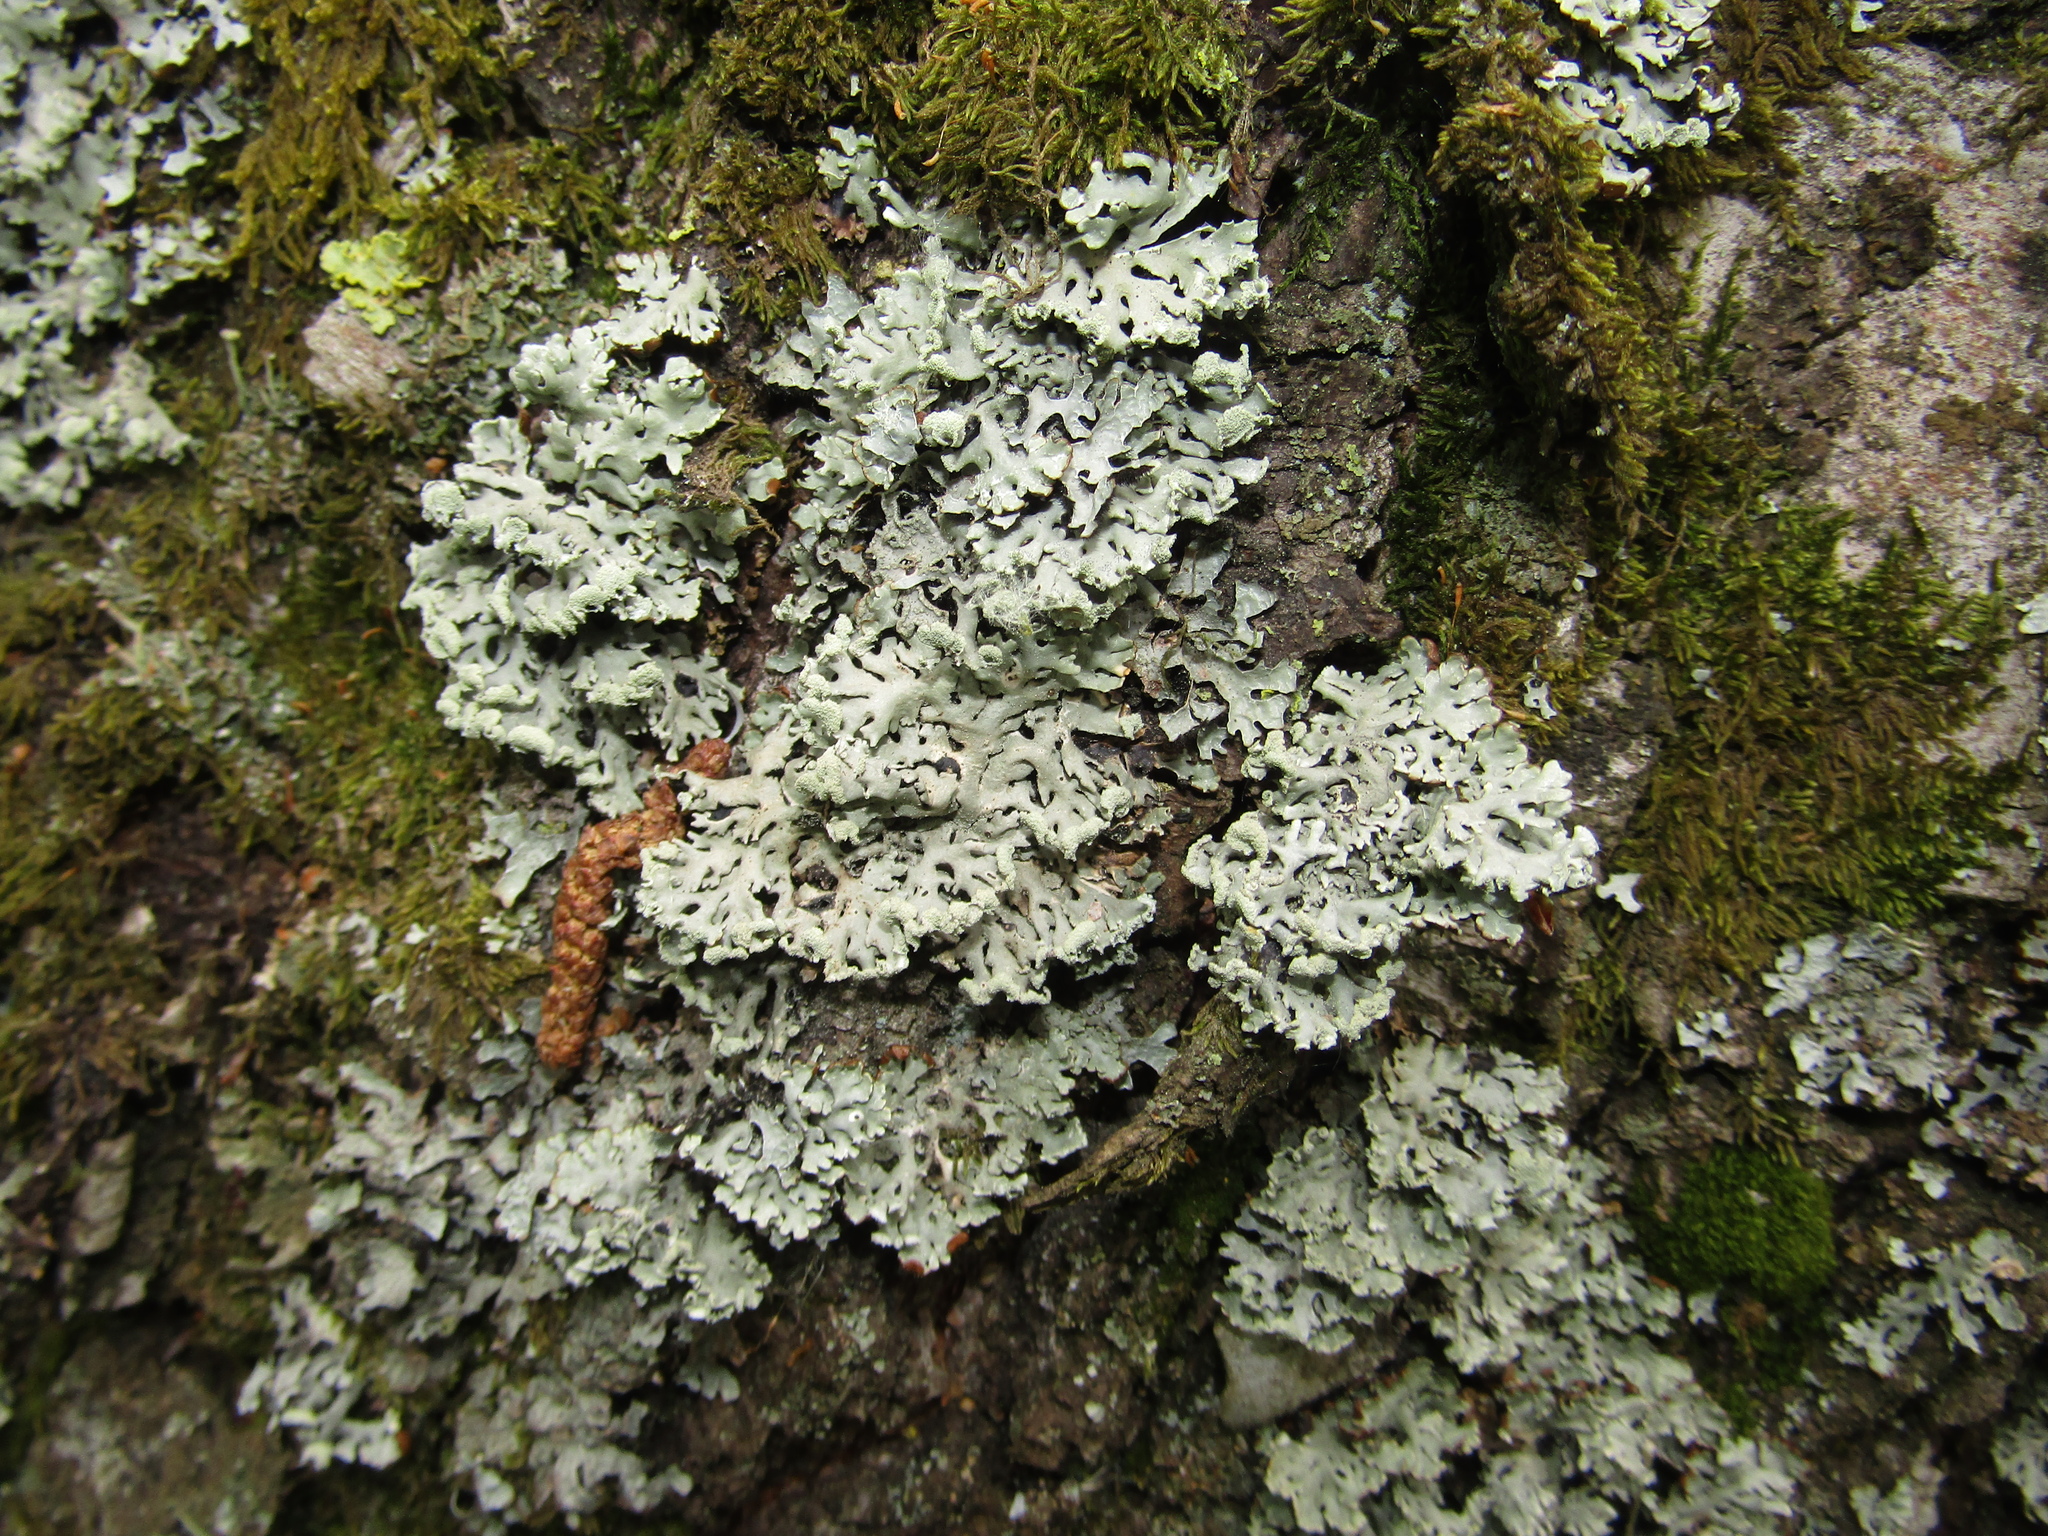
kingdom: Fungi
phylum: Ascomycota
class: Lecanoromycetes
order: Lecanorales
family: Parmeliaceae
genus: Hypogymnia
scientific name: Hypogymnia physodes
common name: Dark crottle
